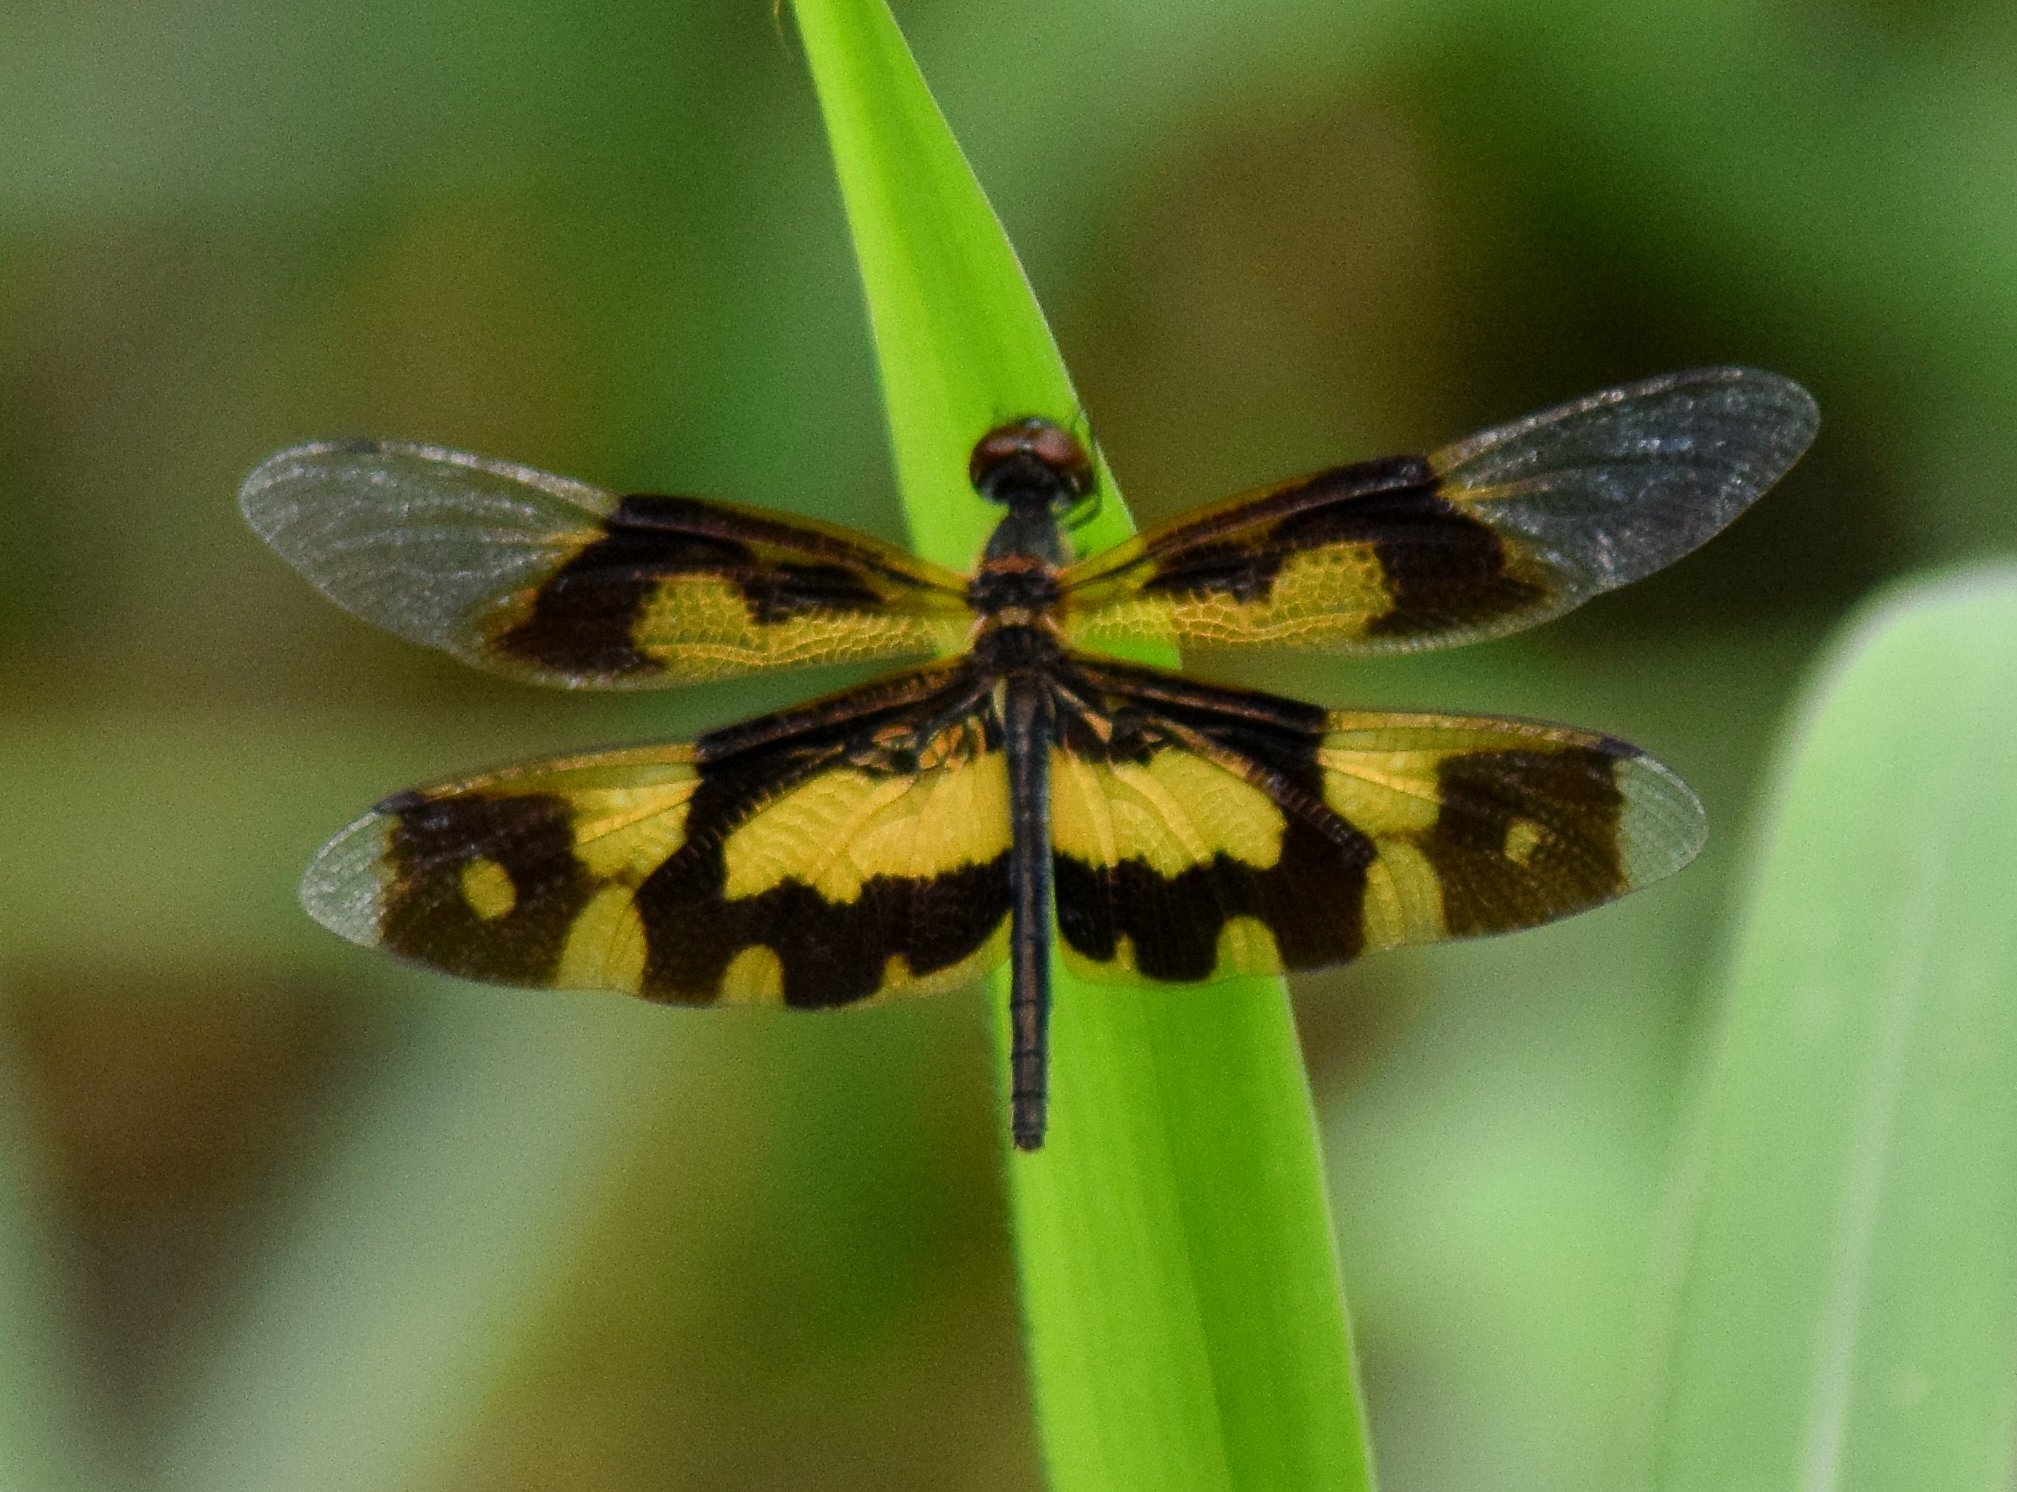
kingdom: Animalia
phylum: Arthropoda
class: Insecta
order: Odonata
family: Libellulidae
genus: Rhyothemis
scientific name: Rhyothemis variegata
